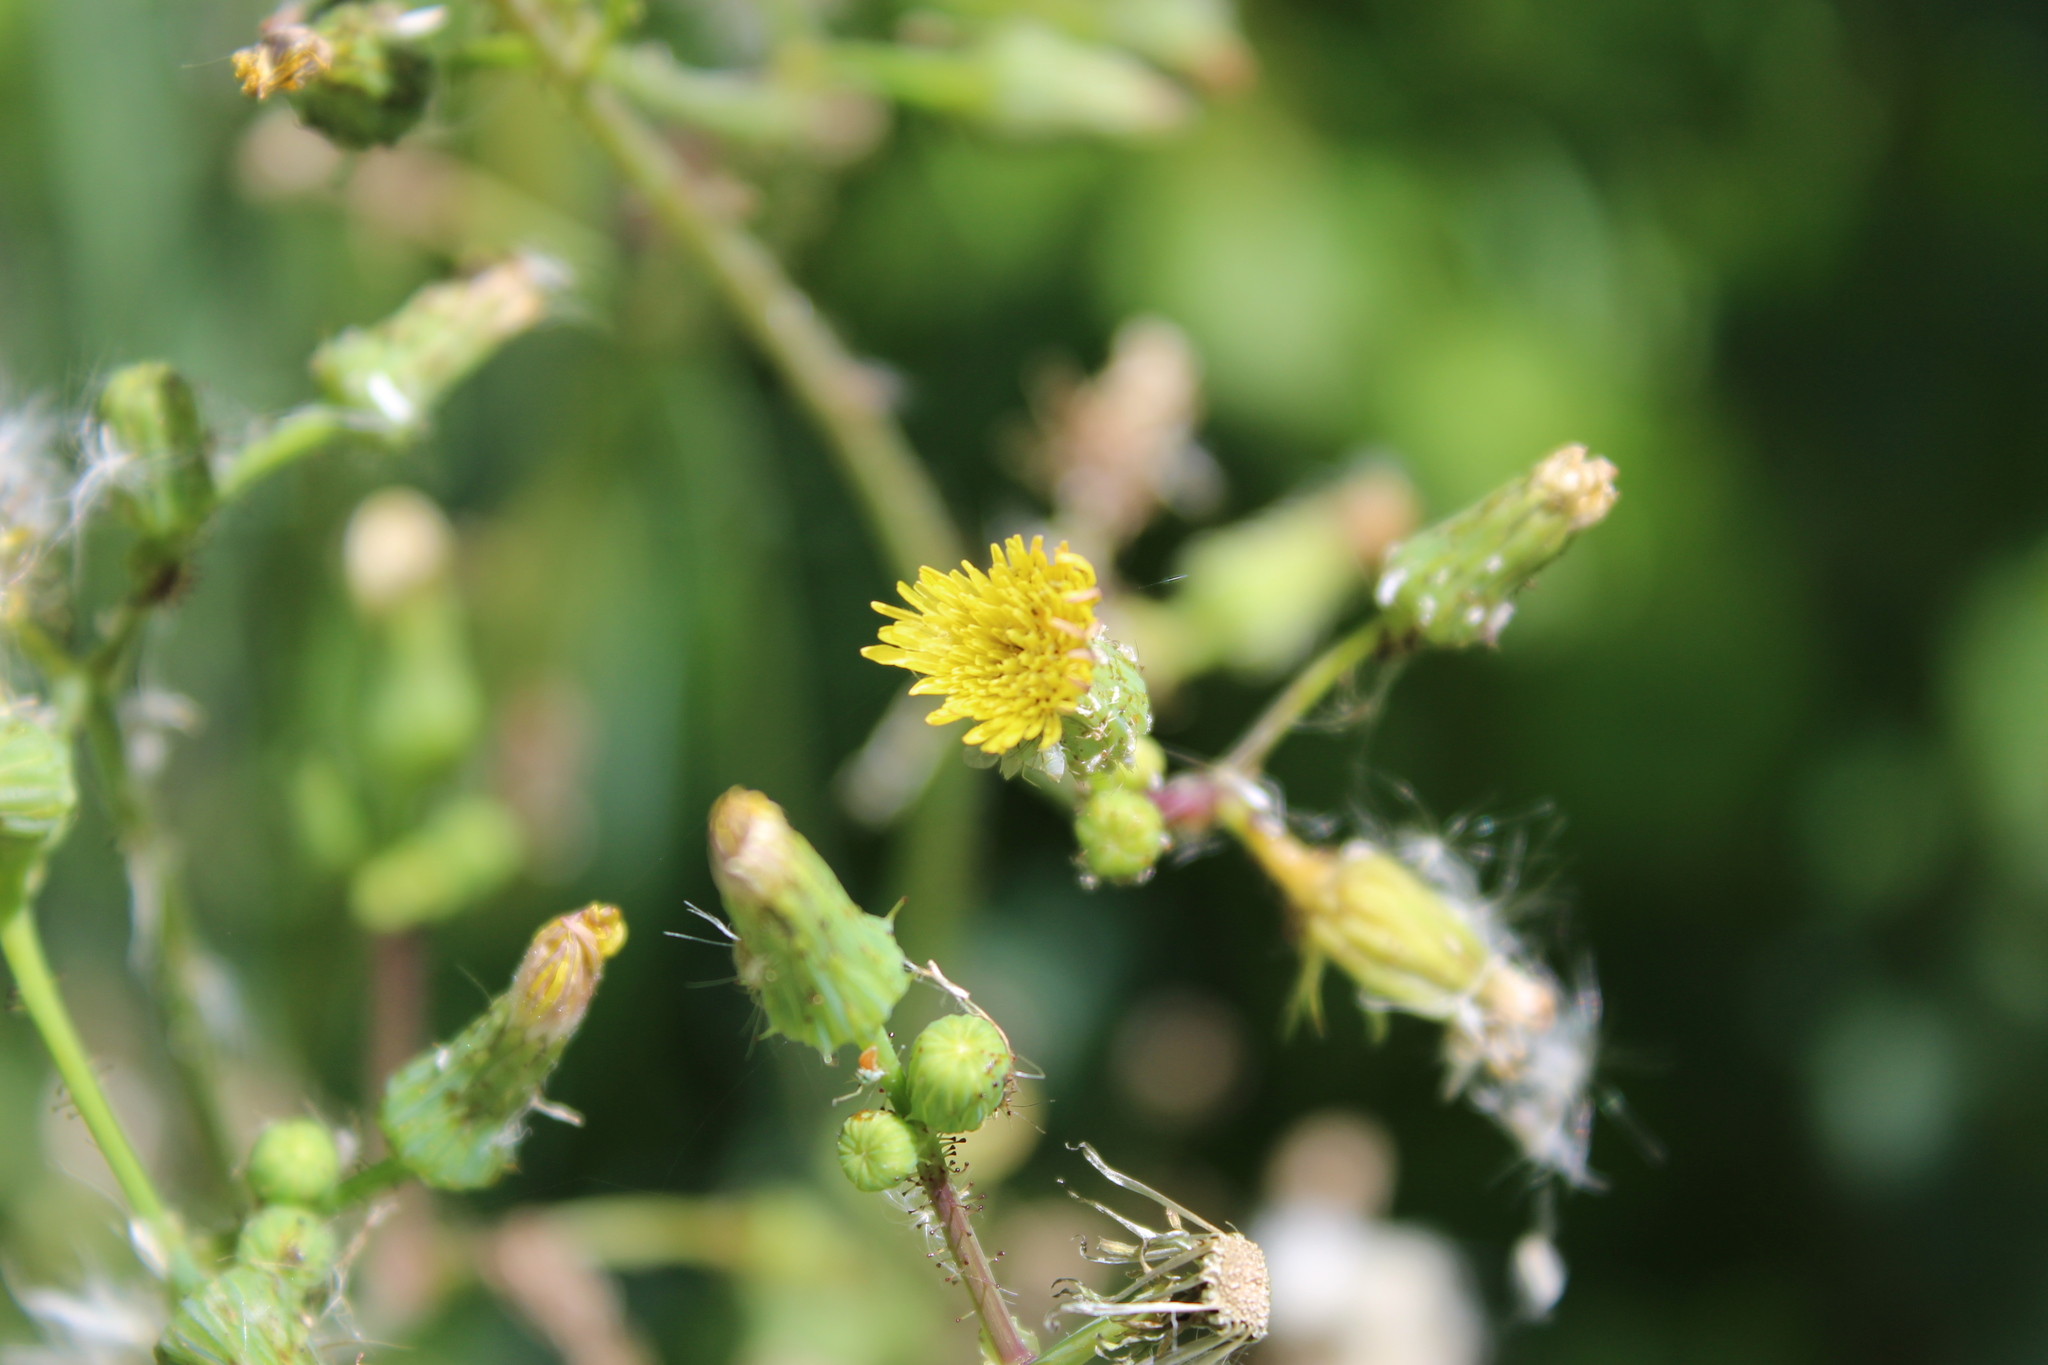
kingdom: Plantae
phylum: Tracheophyta
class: Magnoliopsida
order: Asterales
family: Asteraceae
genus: Sonchus
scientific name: Sonchus asper
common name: Prickly sow-thistle
